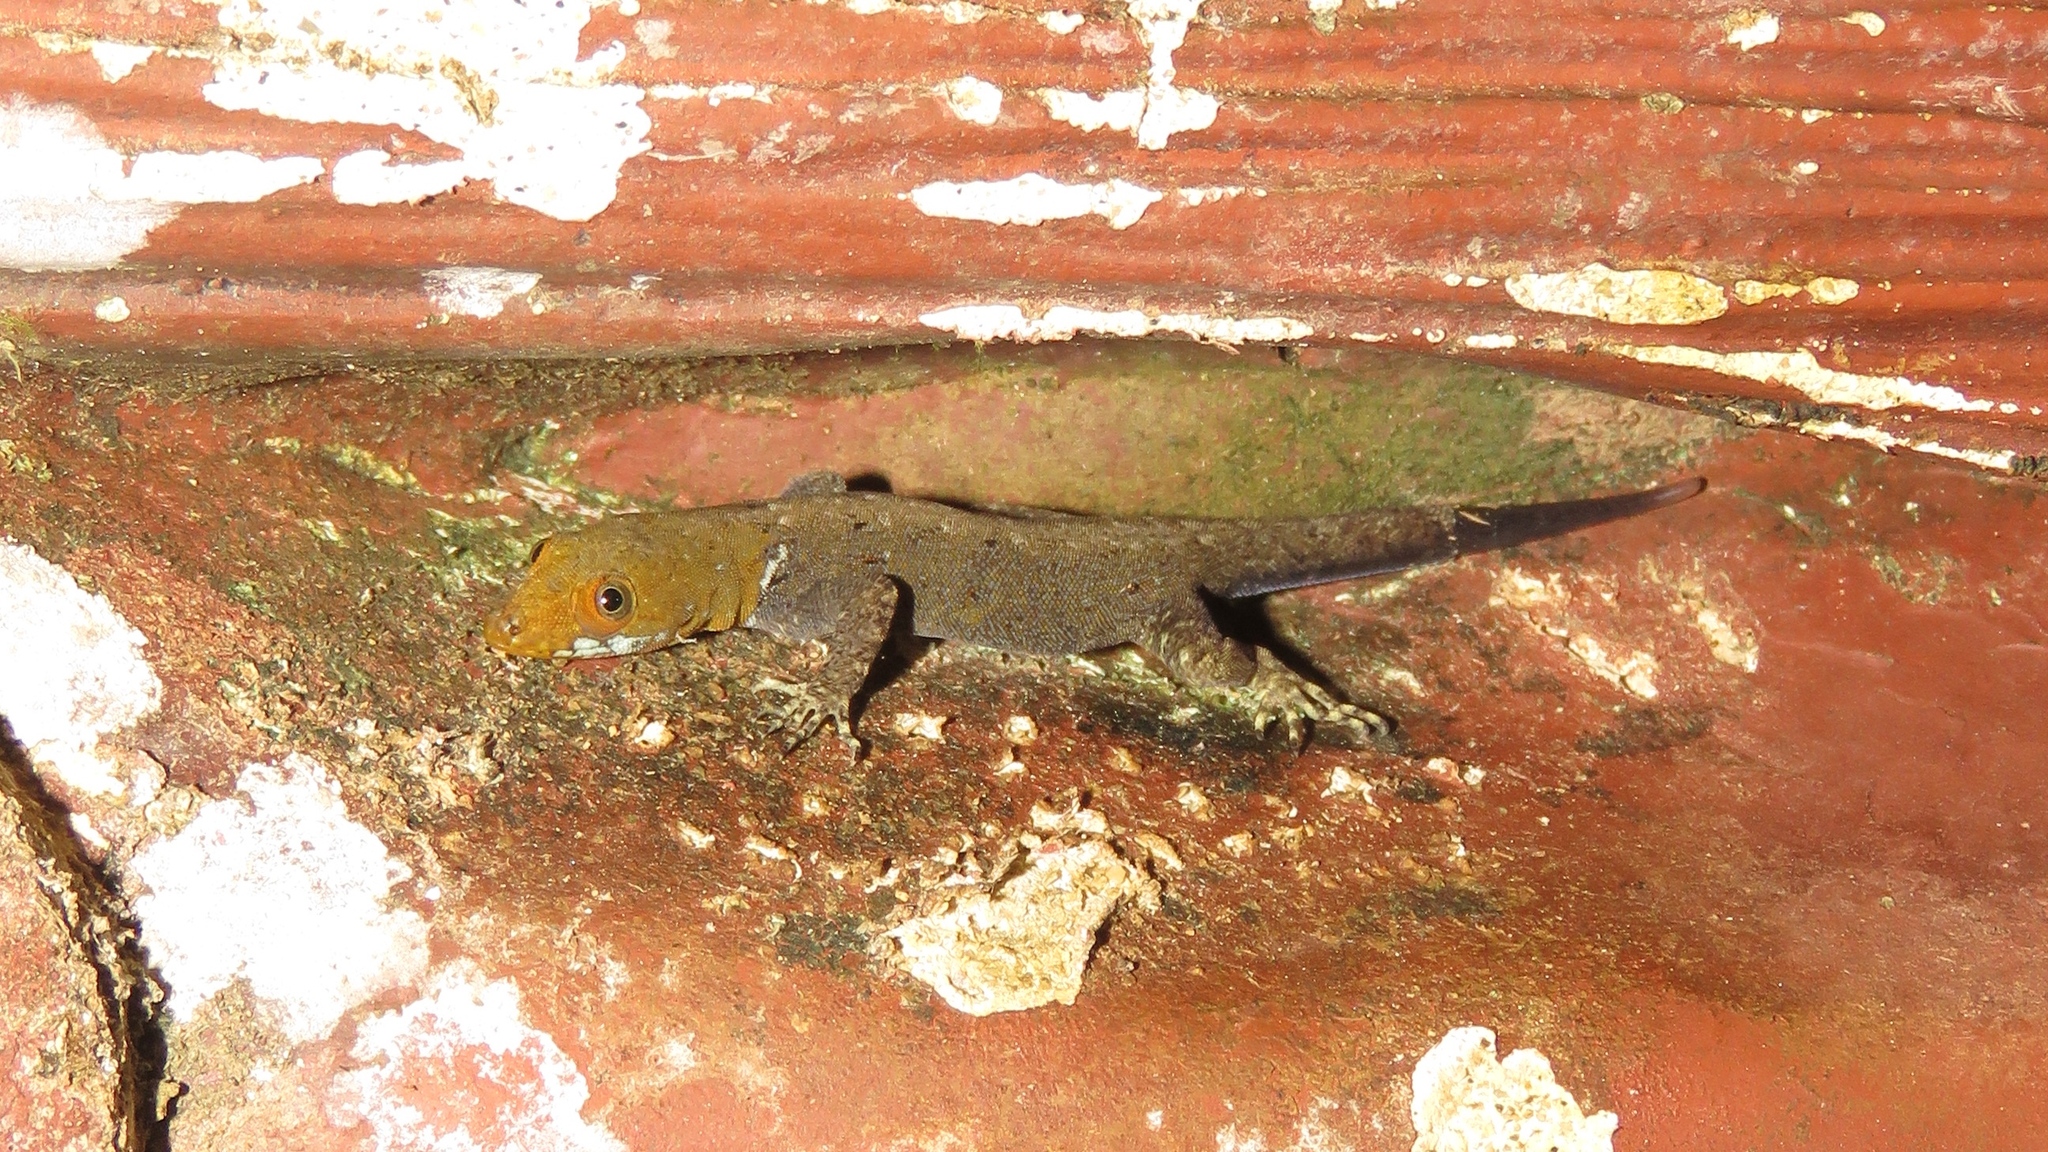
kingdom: Animalia
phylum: Chordata
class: Squamata
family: Sphaerodactylidae
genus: Gonatodes
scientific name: Gonatodes albogularis
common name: Yellow-headed gecko
